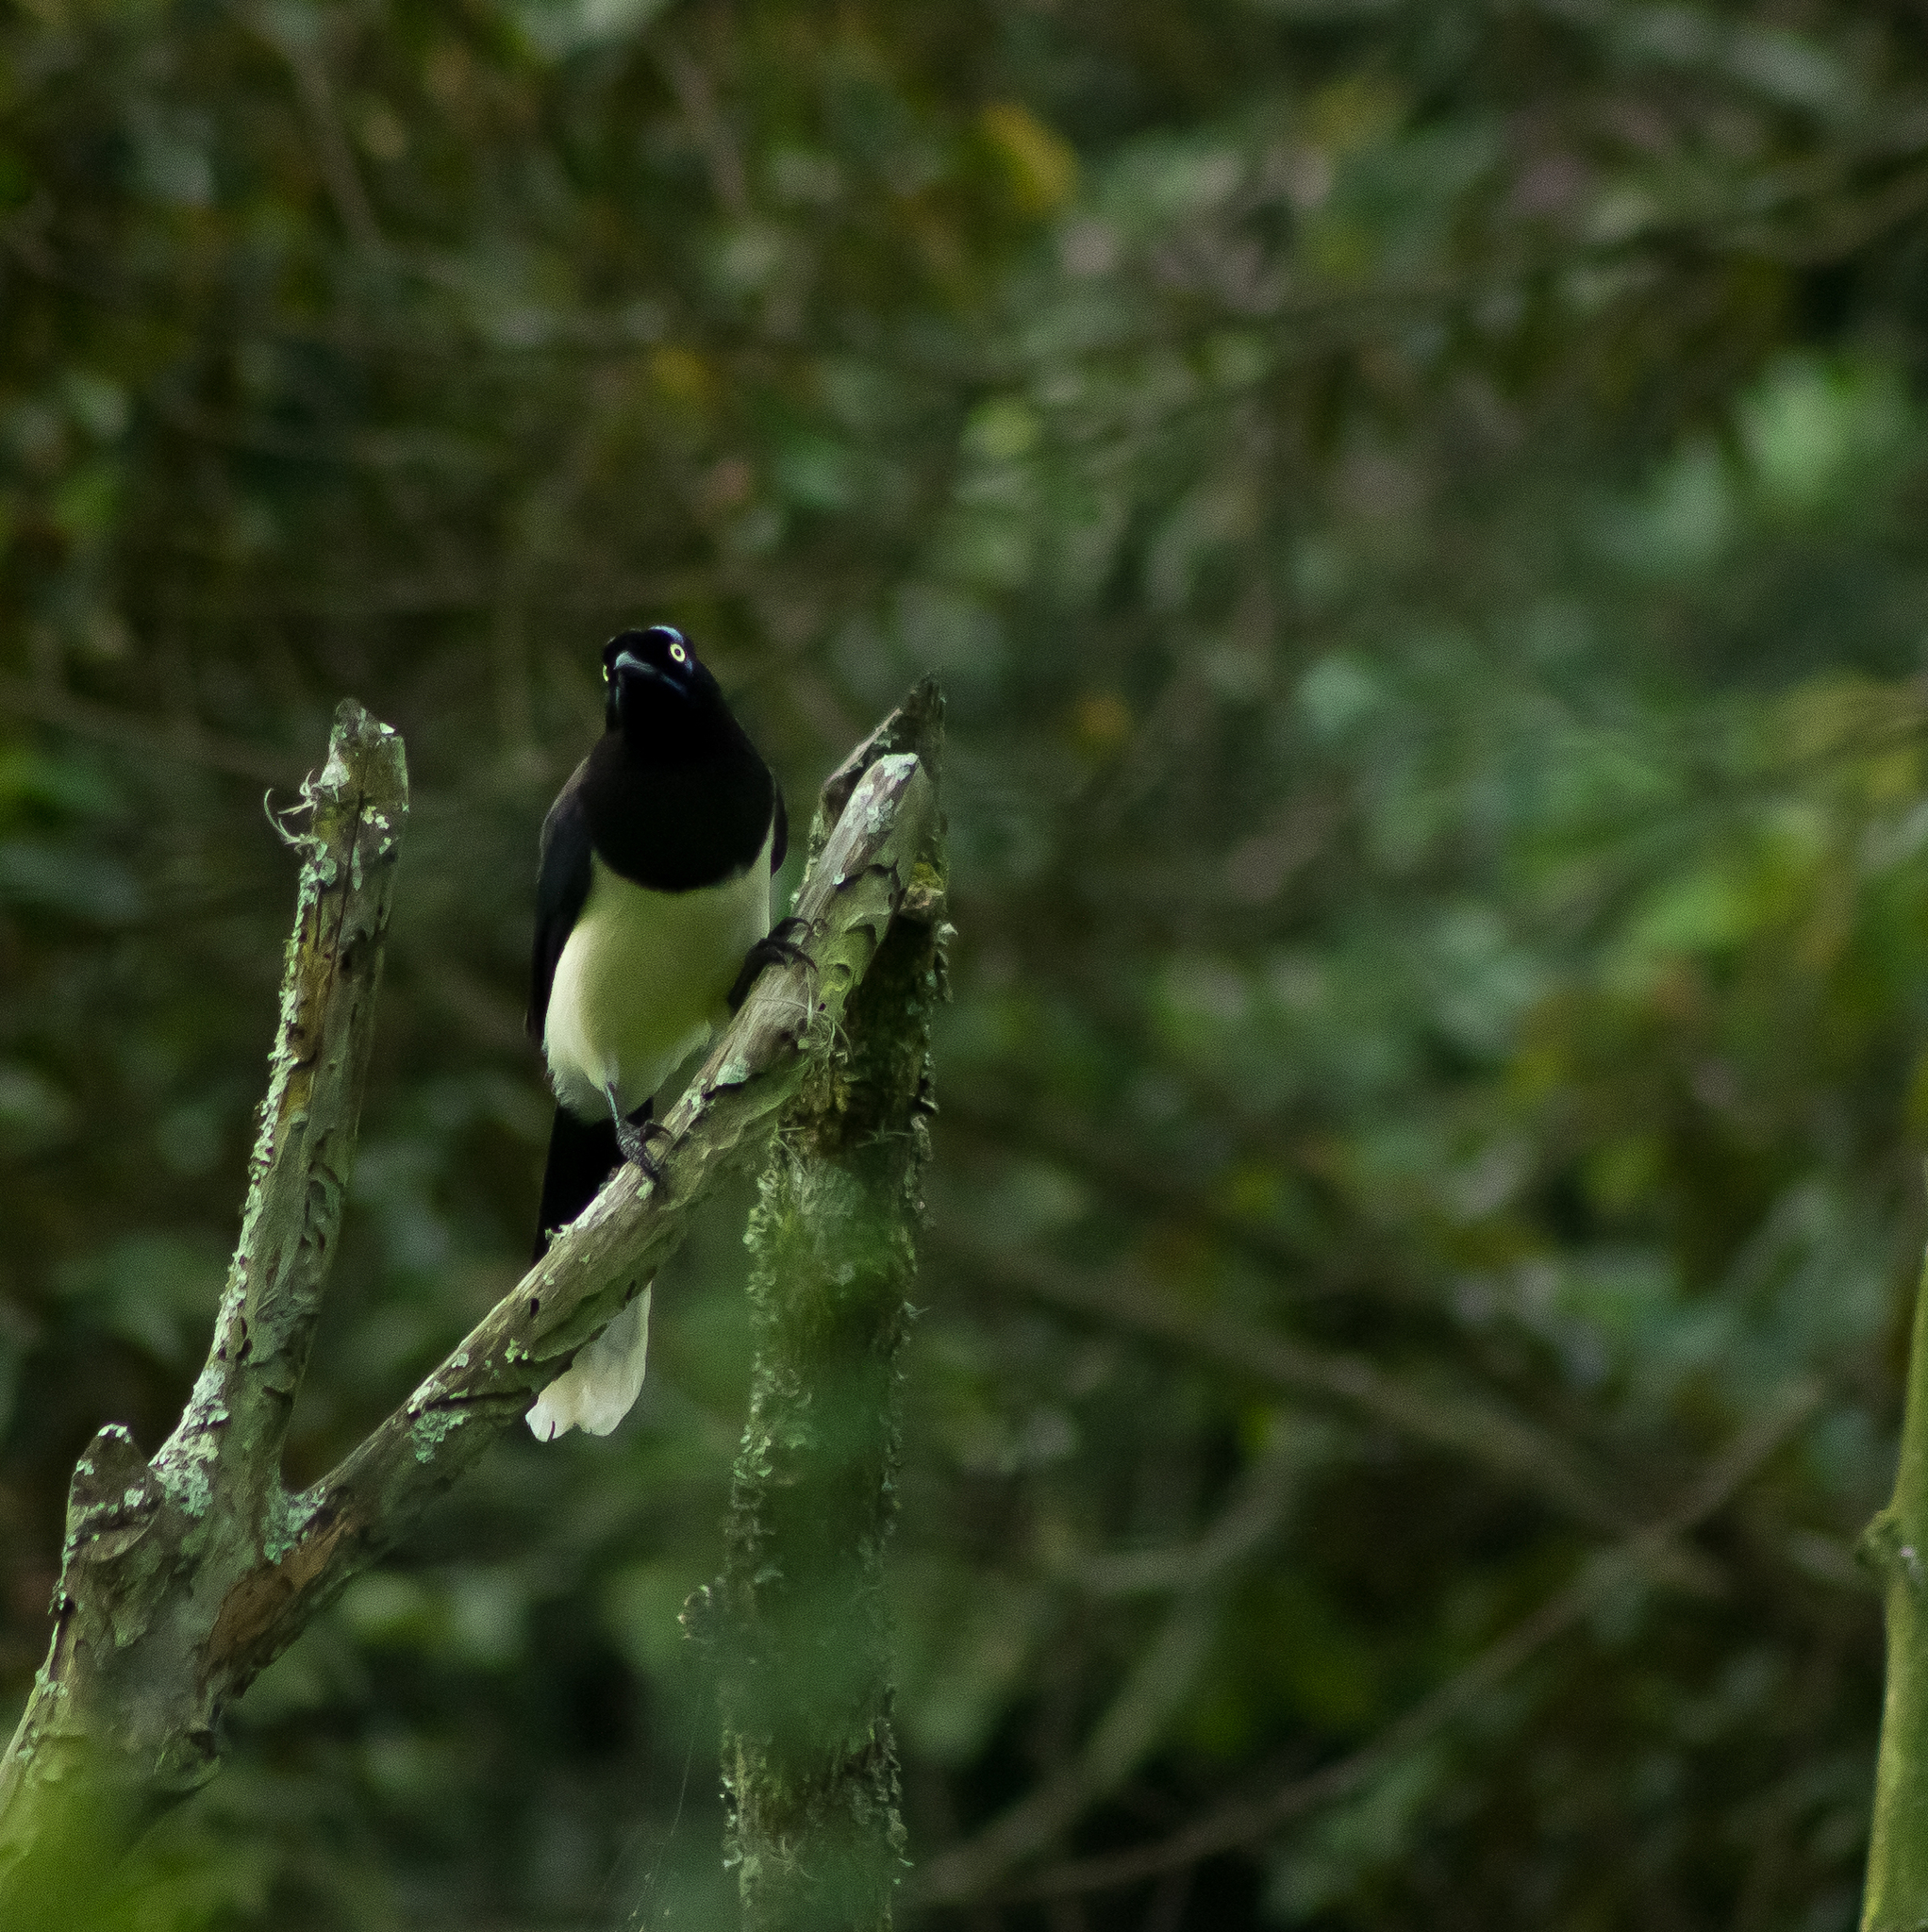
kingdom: Animalia
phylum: Chordata
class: Aves
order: Passeriformes
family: Corvidae
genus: Cyanocorax
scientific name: Cyanocorax affinis
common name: Black-chested jay
